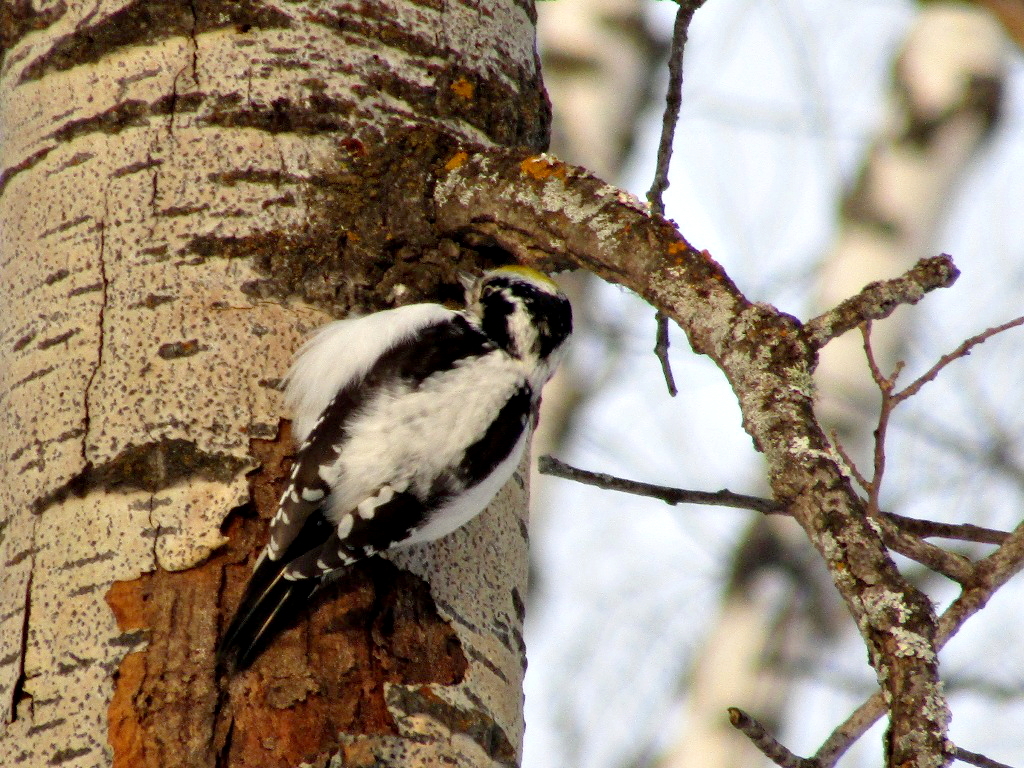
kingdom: Animalia
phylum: Chordata
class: Aves
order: Piciformes
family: Picidae
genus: Picoides
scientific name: Picoides tridactylus
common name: Eurasian three-toed woodpecker
